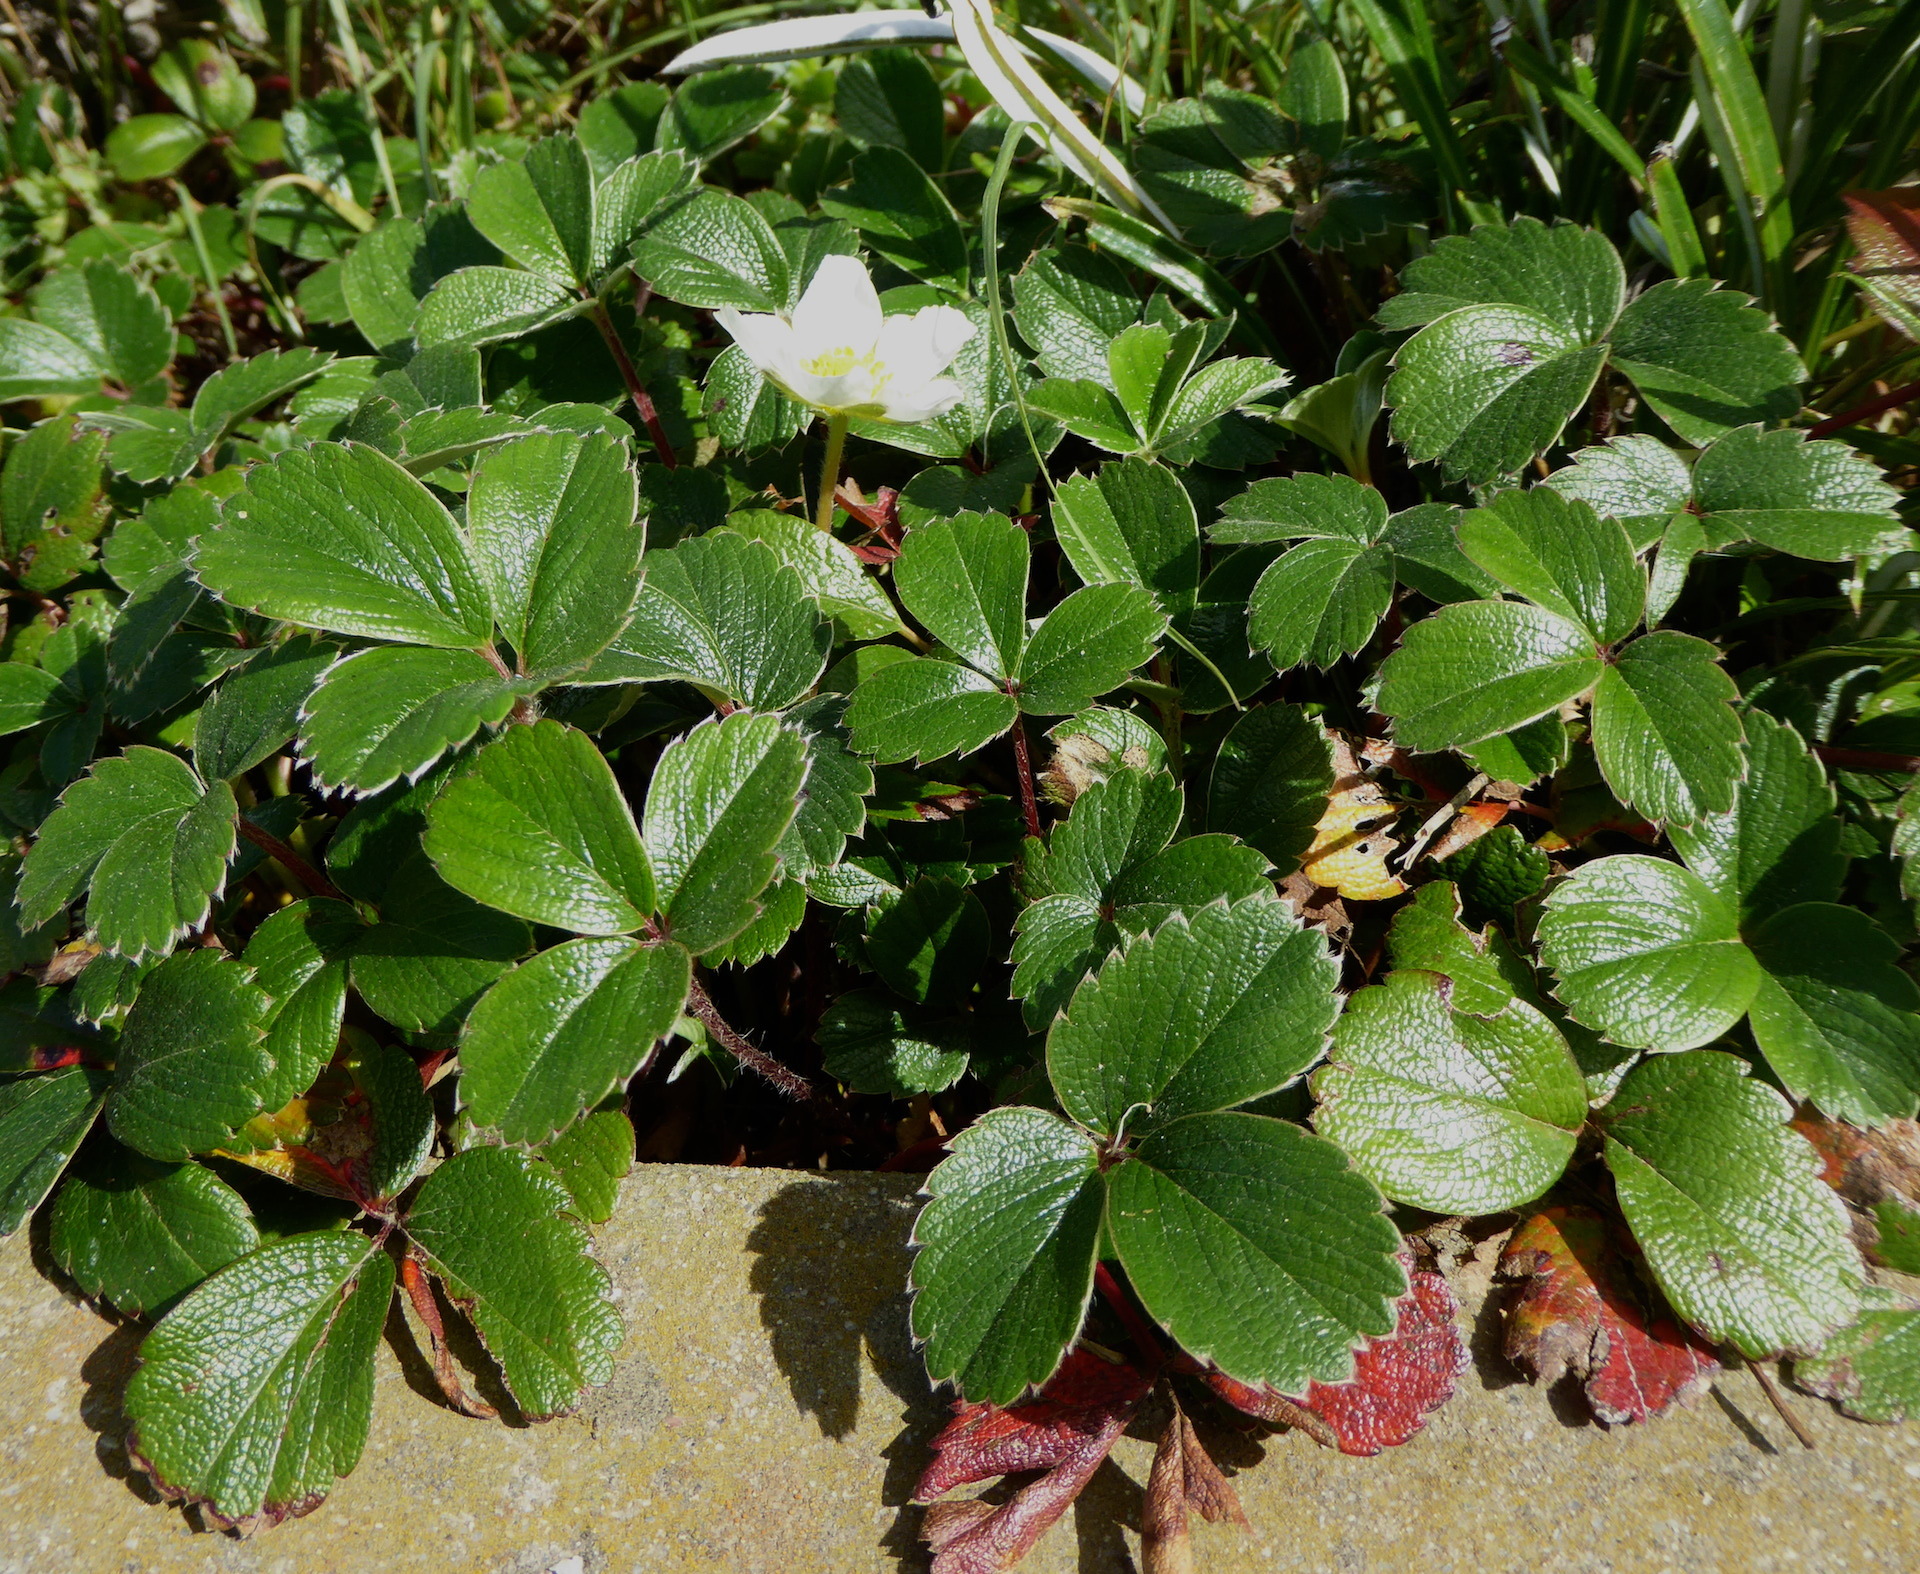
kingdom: Plantae
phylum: Tracheophyta
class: Magnoliopsida
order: Rosales
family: Rosaceae
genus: Fragaria
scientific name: Fragaria chiloensis
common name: Beach strawberry
